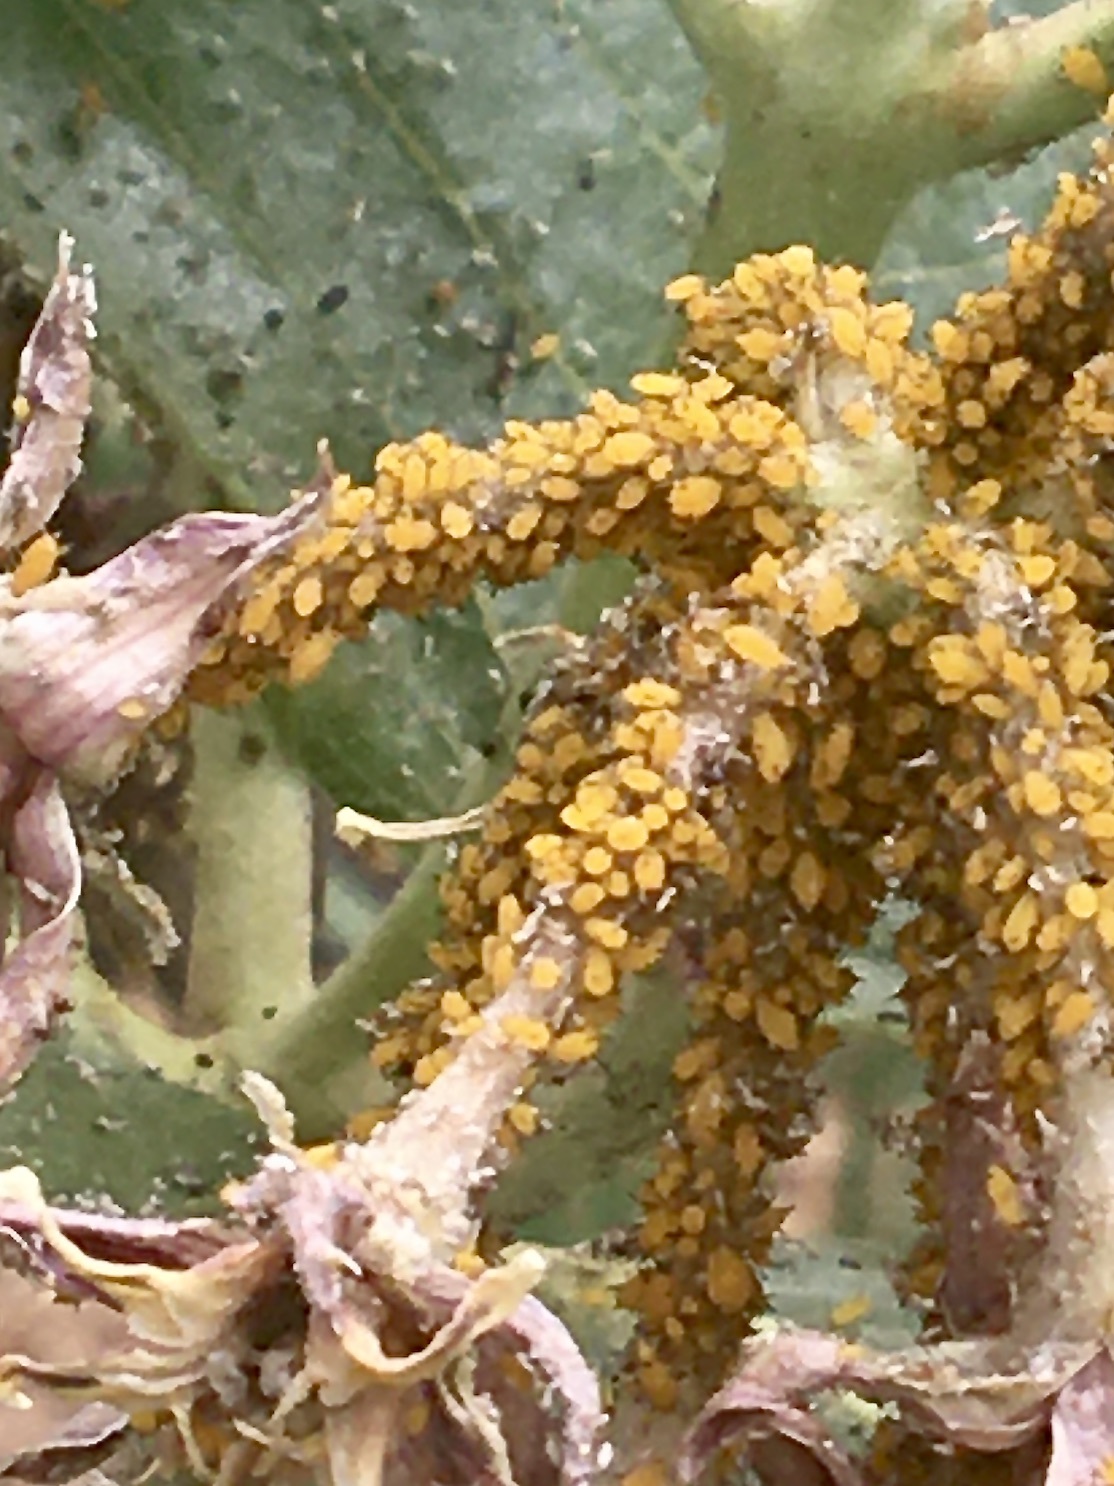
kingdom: Animalia
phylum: Arthropoda
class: Insecta
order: Hemiptera
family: Aphididae
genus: Aphis
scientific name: Aphis nerii
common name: Oleander aphid
